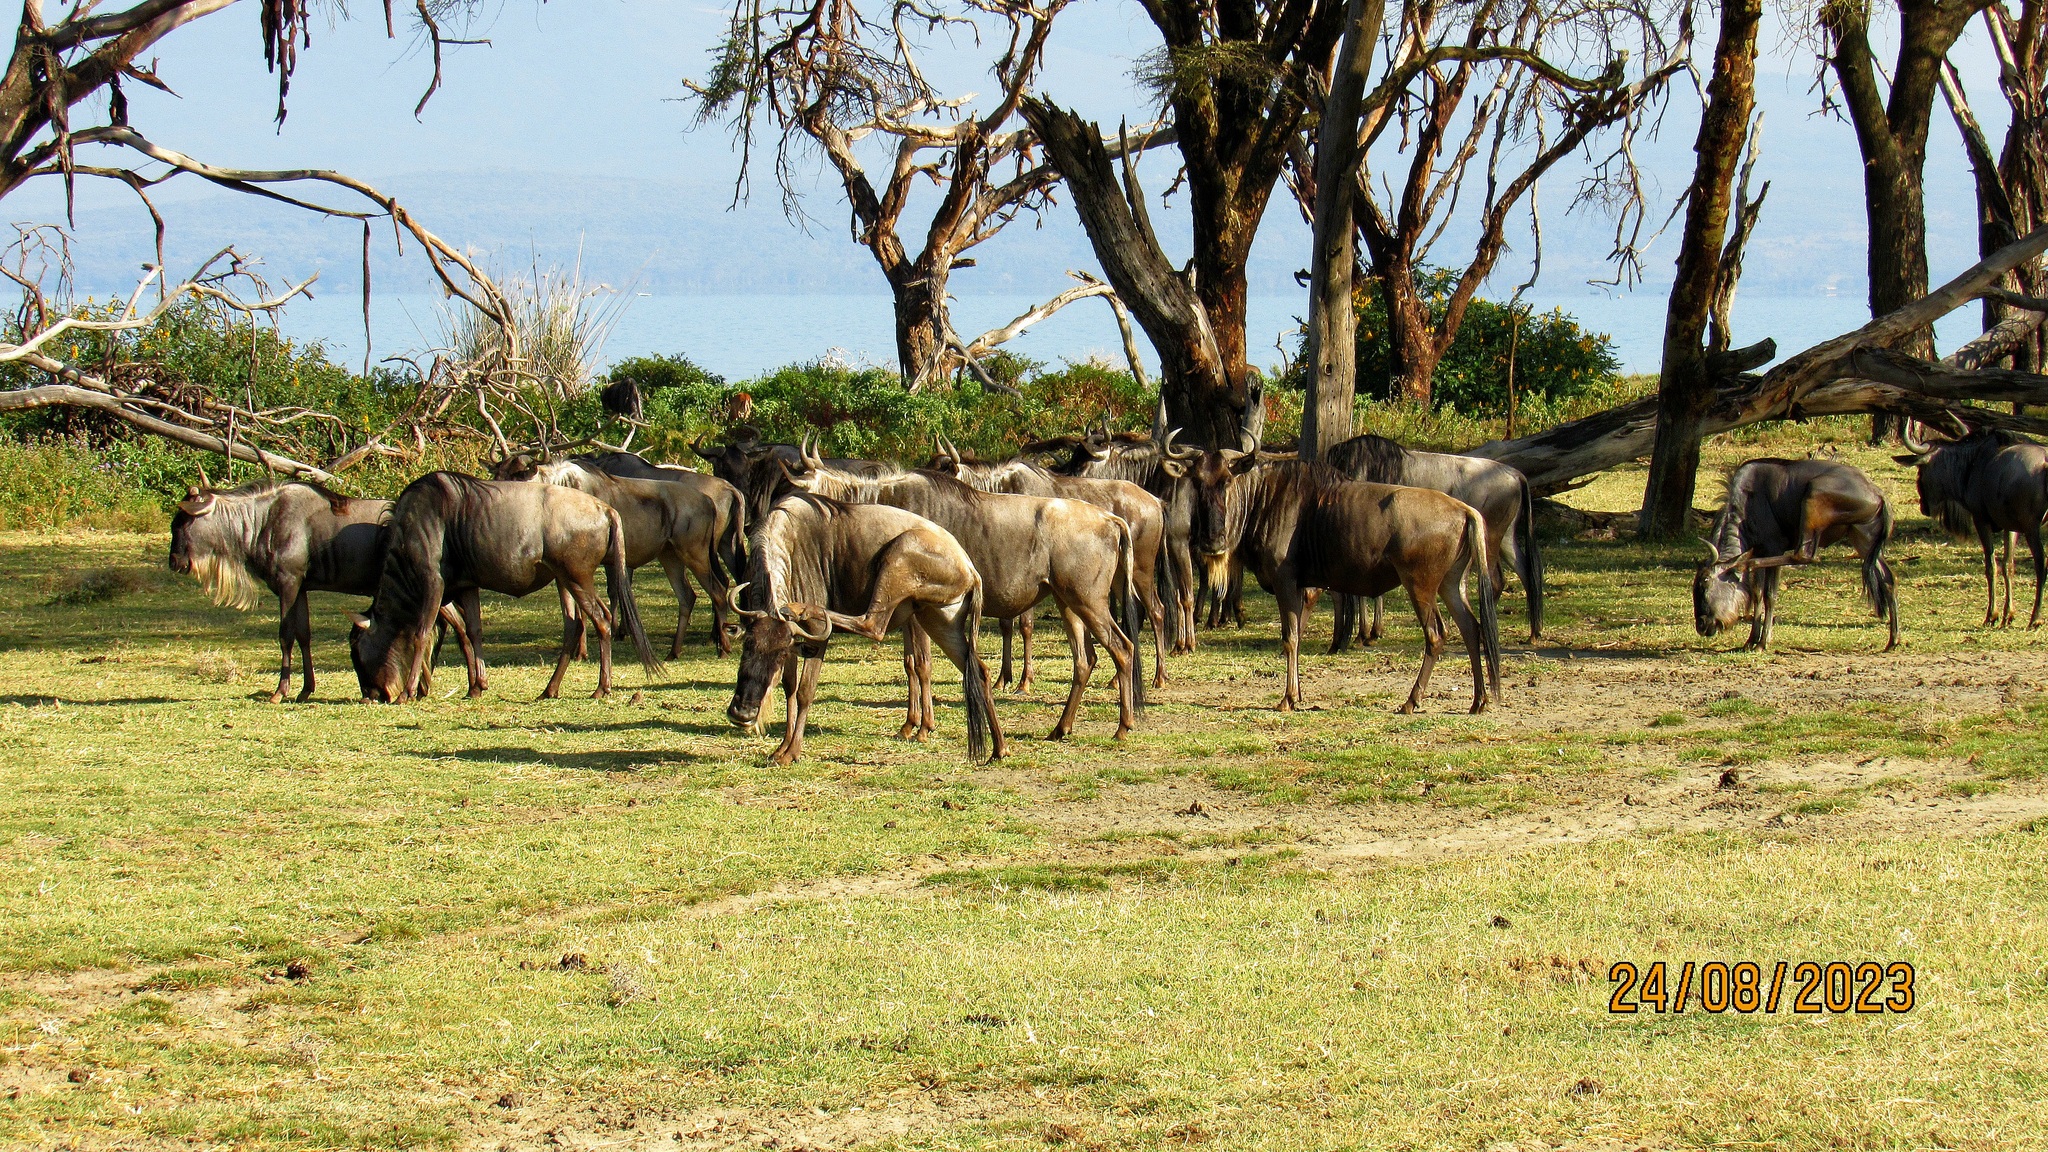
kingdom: Animalia
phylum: Chordata
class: Mammalia
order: Artiodactyla
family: Bovidae
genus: Connochaetes
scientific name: Connochaetes taurinus
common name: Blue wildebeest
